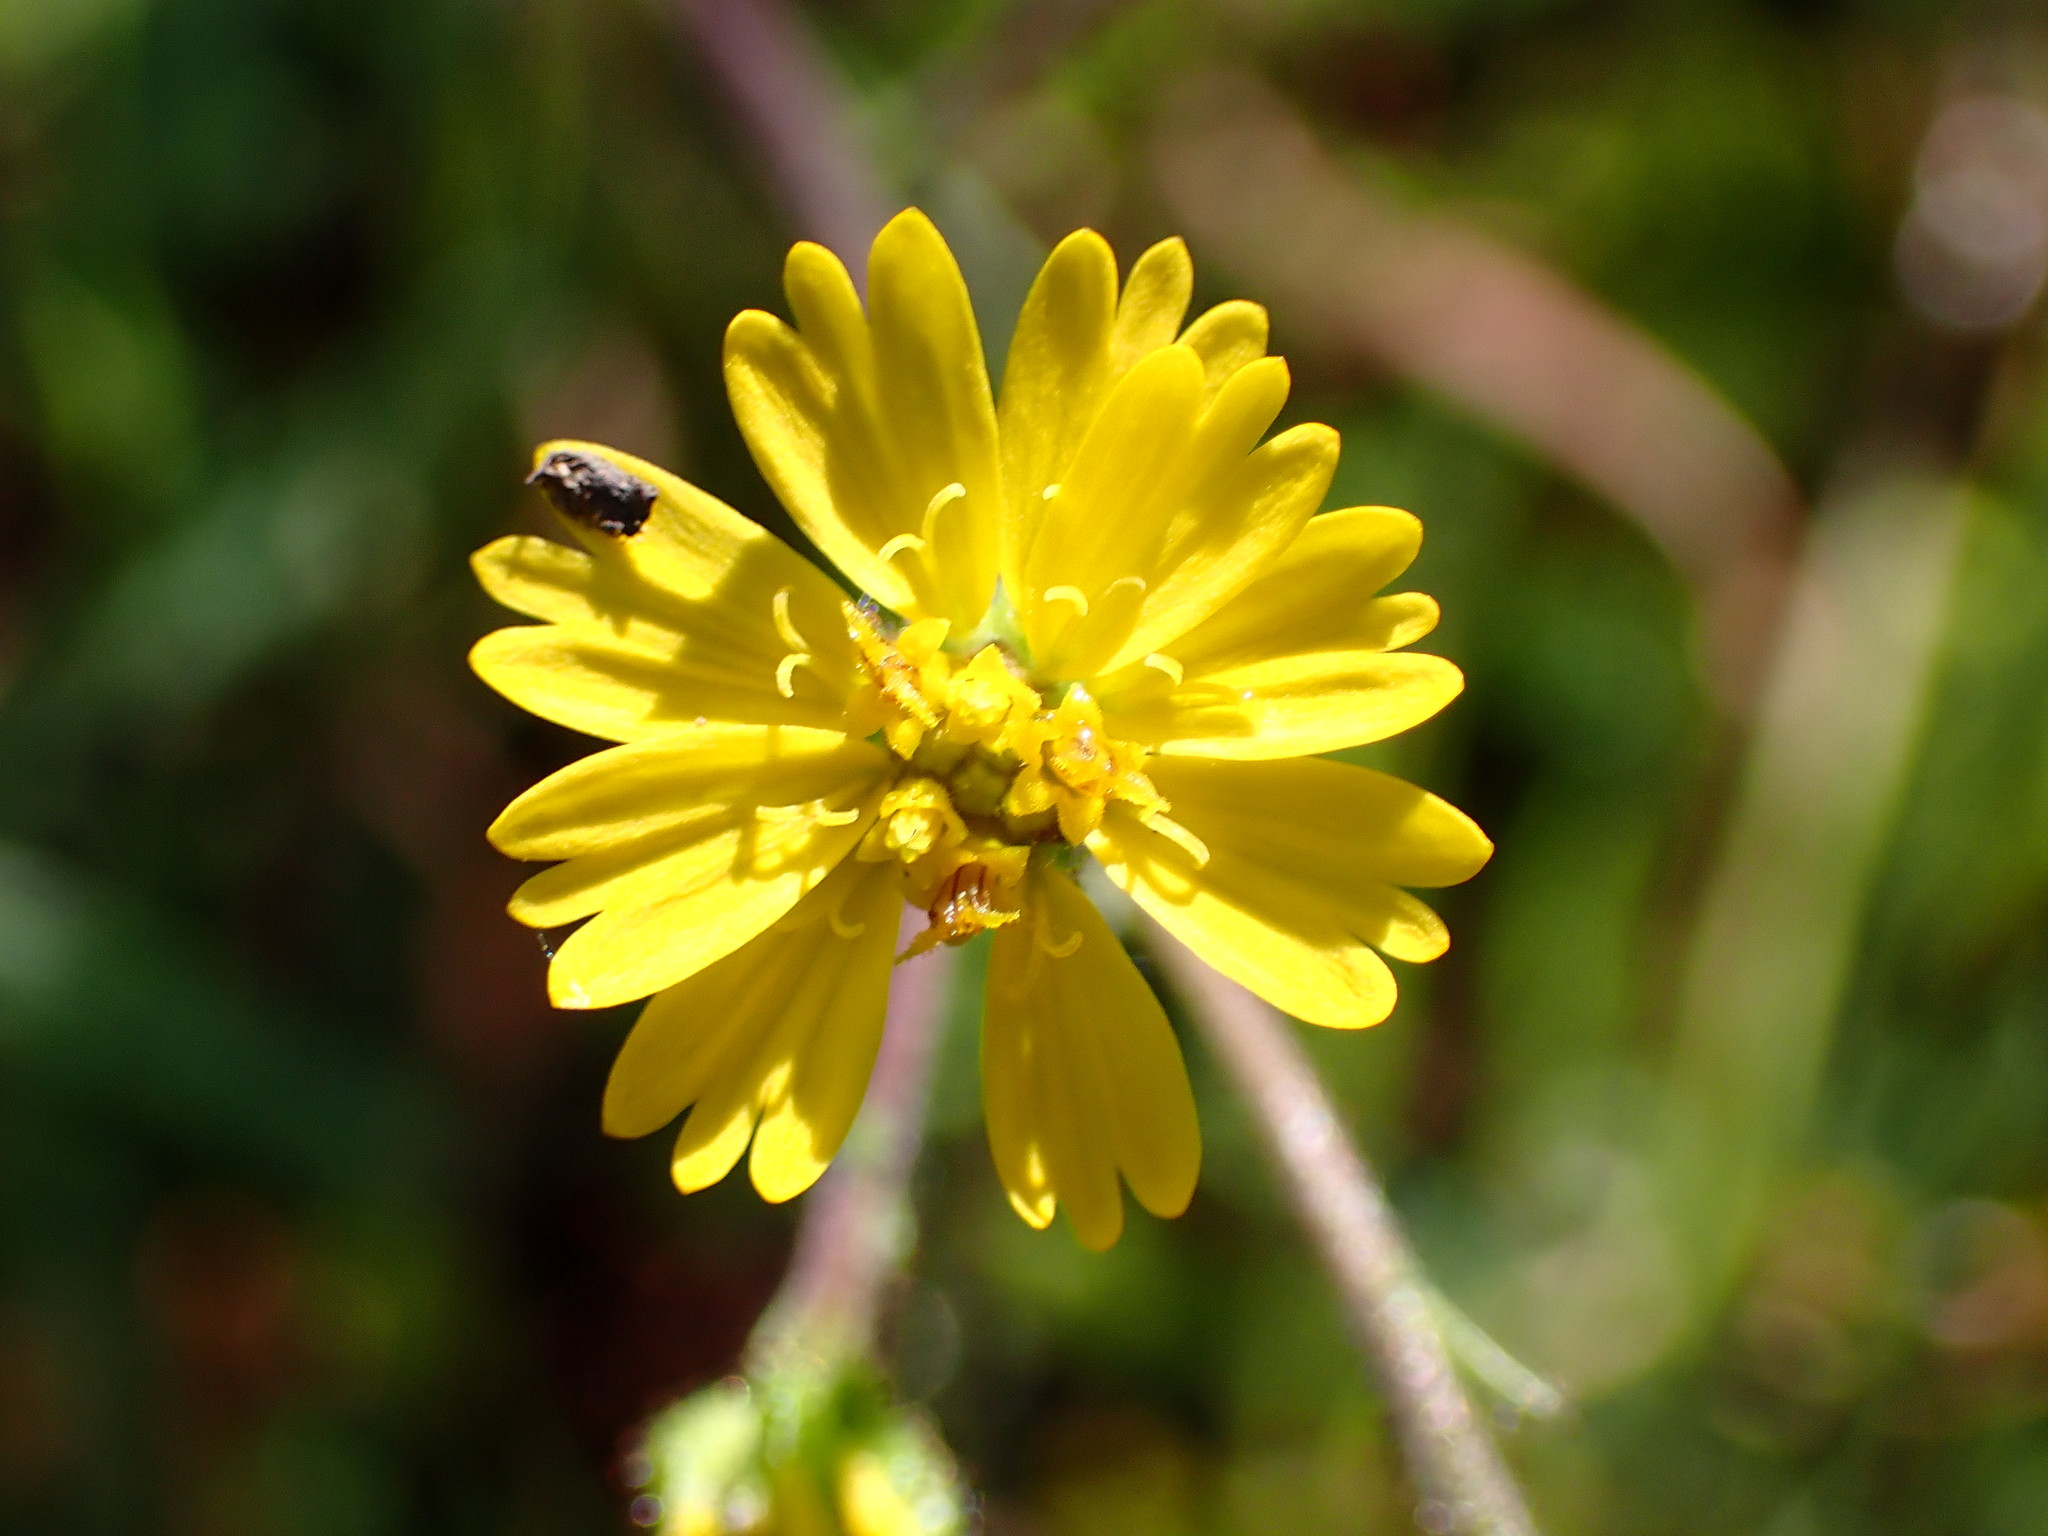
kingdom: Plantae
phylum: Tracheophyta
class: Magnoliopsida
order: Asterales
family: Asteraceae
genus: Anisocarpus
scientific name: Anisocarpus madioides
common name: Woodland madia
